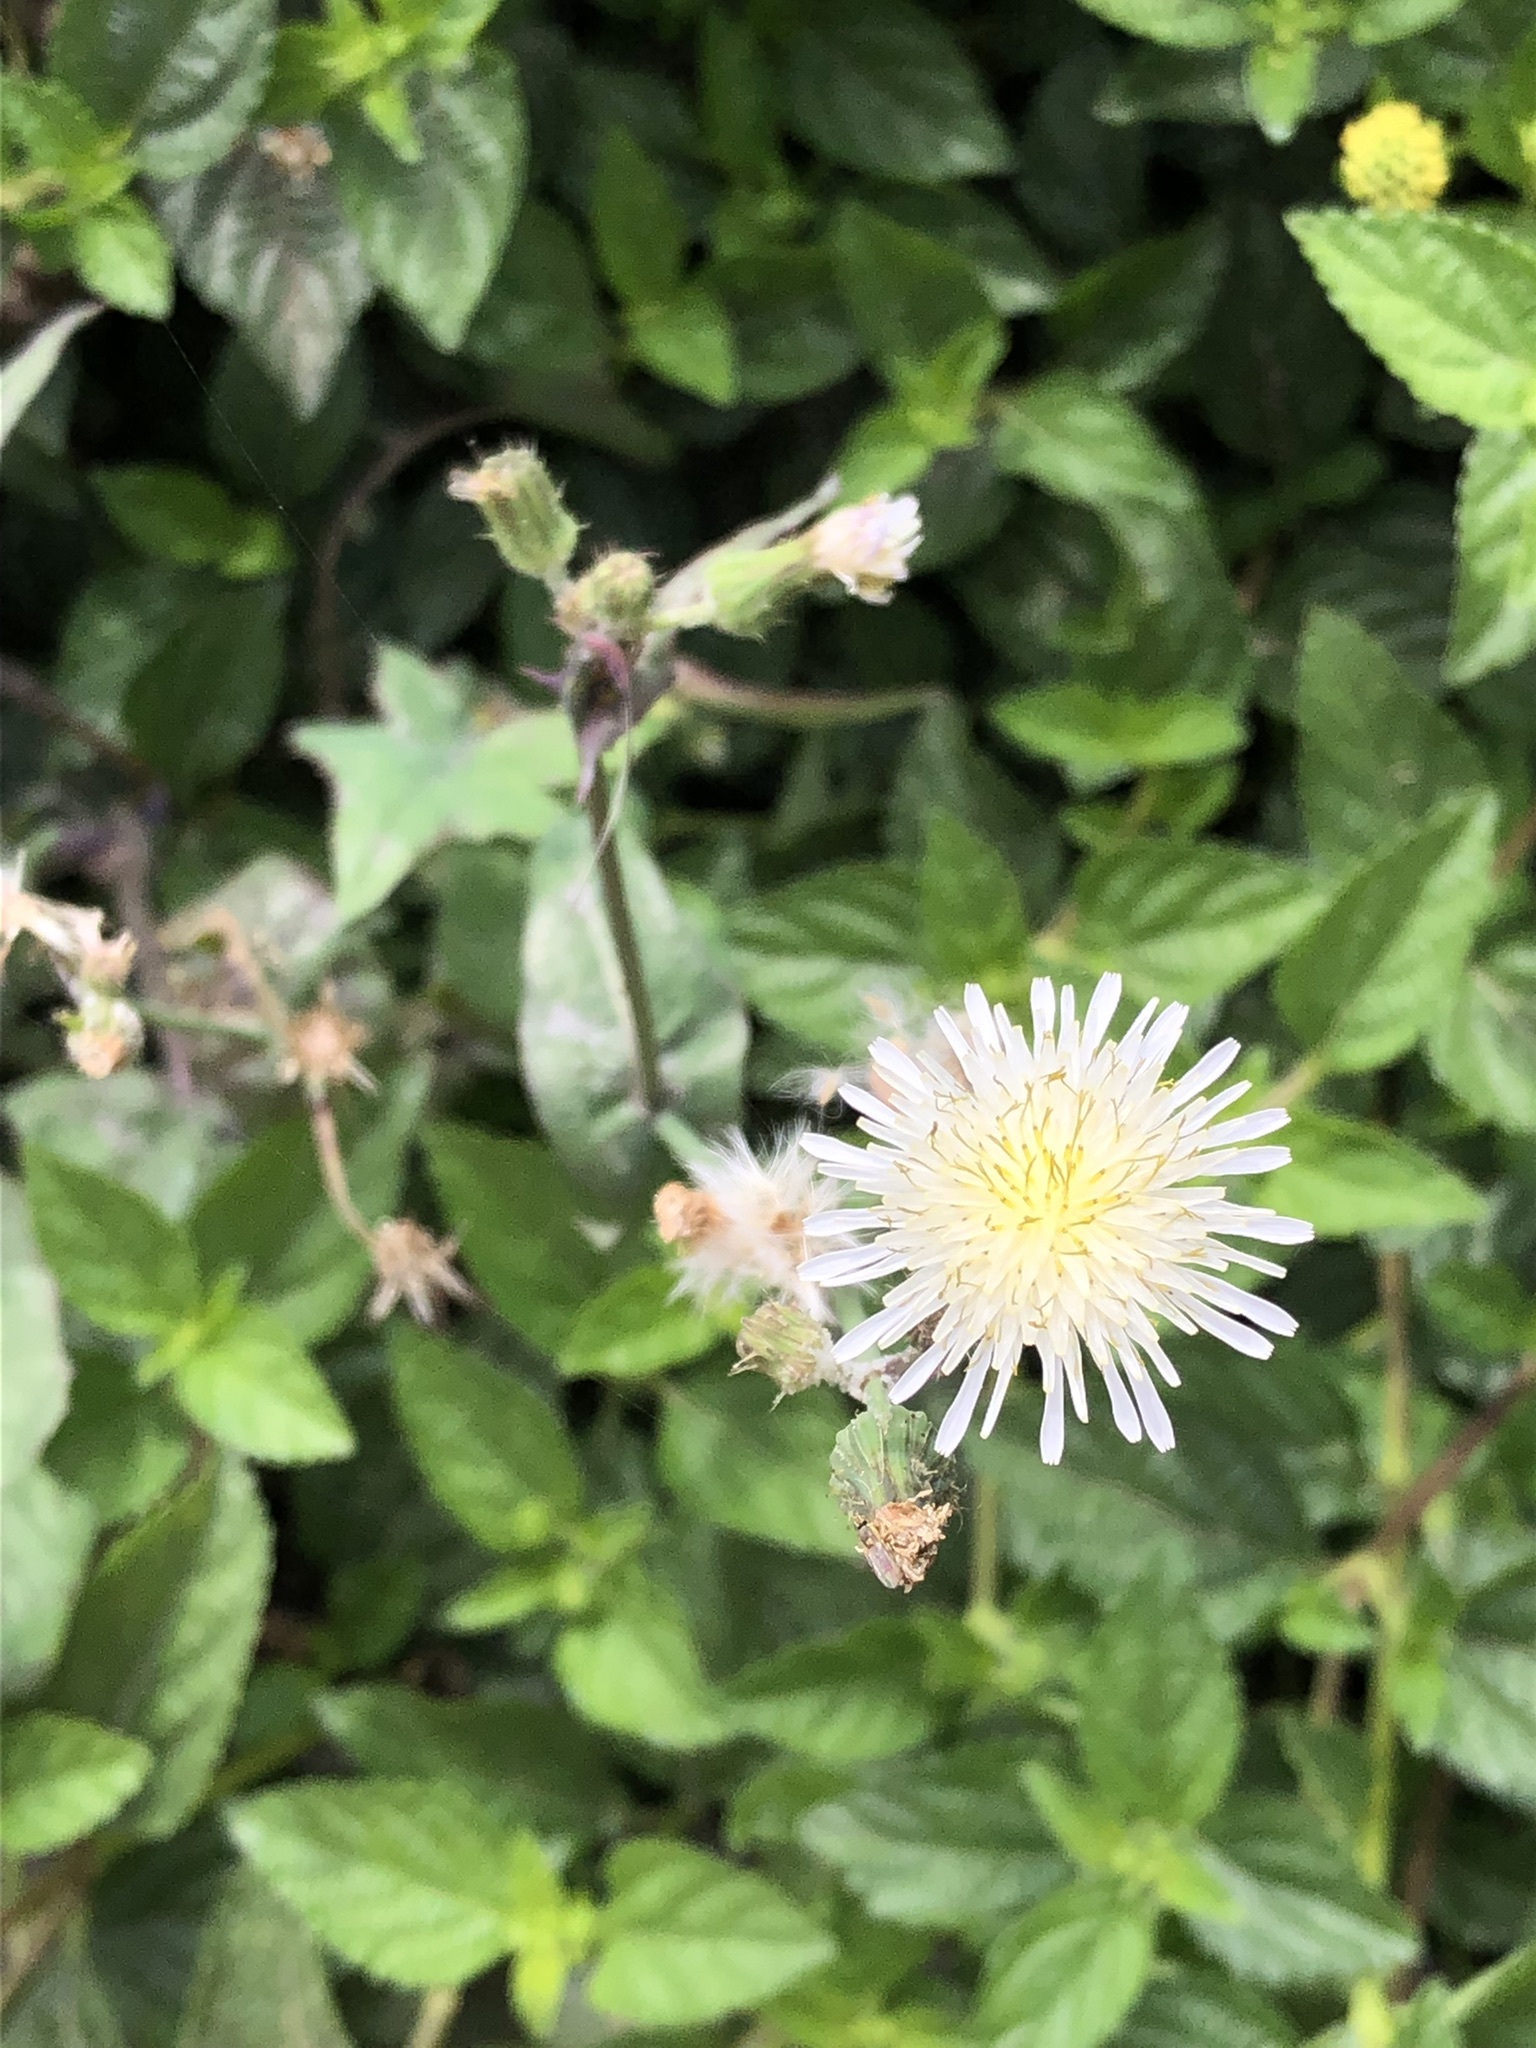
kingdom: Plantae
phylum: Tracheophyta
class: Magnoliopsida
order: Asterales
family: Asteraceae
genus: Sonchus
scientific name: Sonchus oleraceus
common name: Common sowthistle
